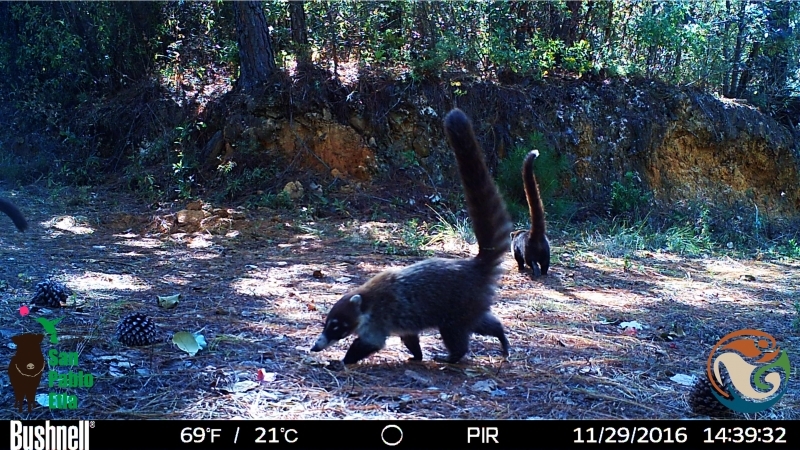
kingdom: Animalia
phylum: Chordata
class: Mammalia
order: Carnivora
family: Procyonidae
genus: Nasua
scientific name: Nasua narica
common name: White-nosed coati
